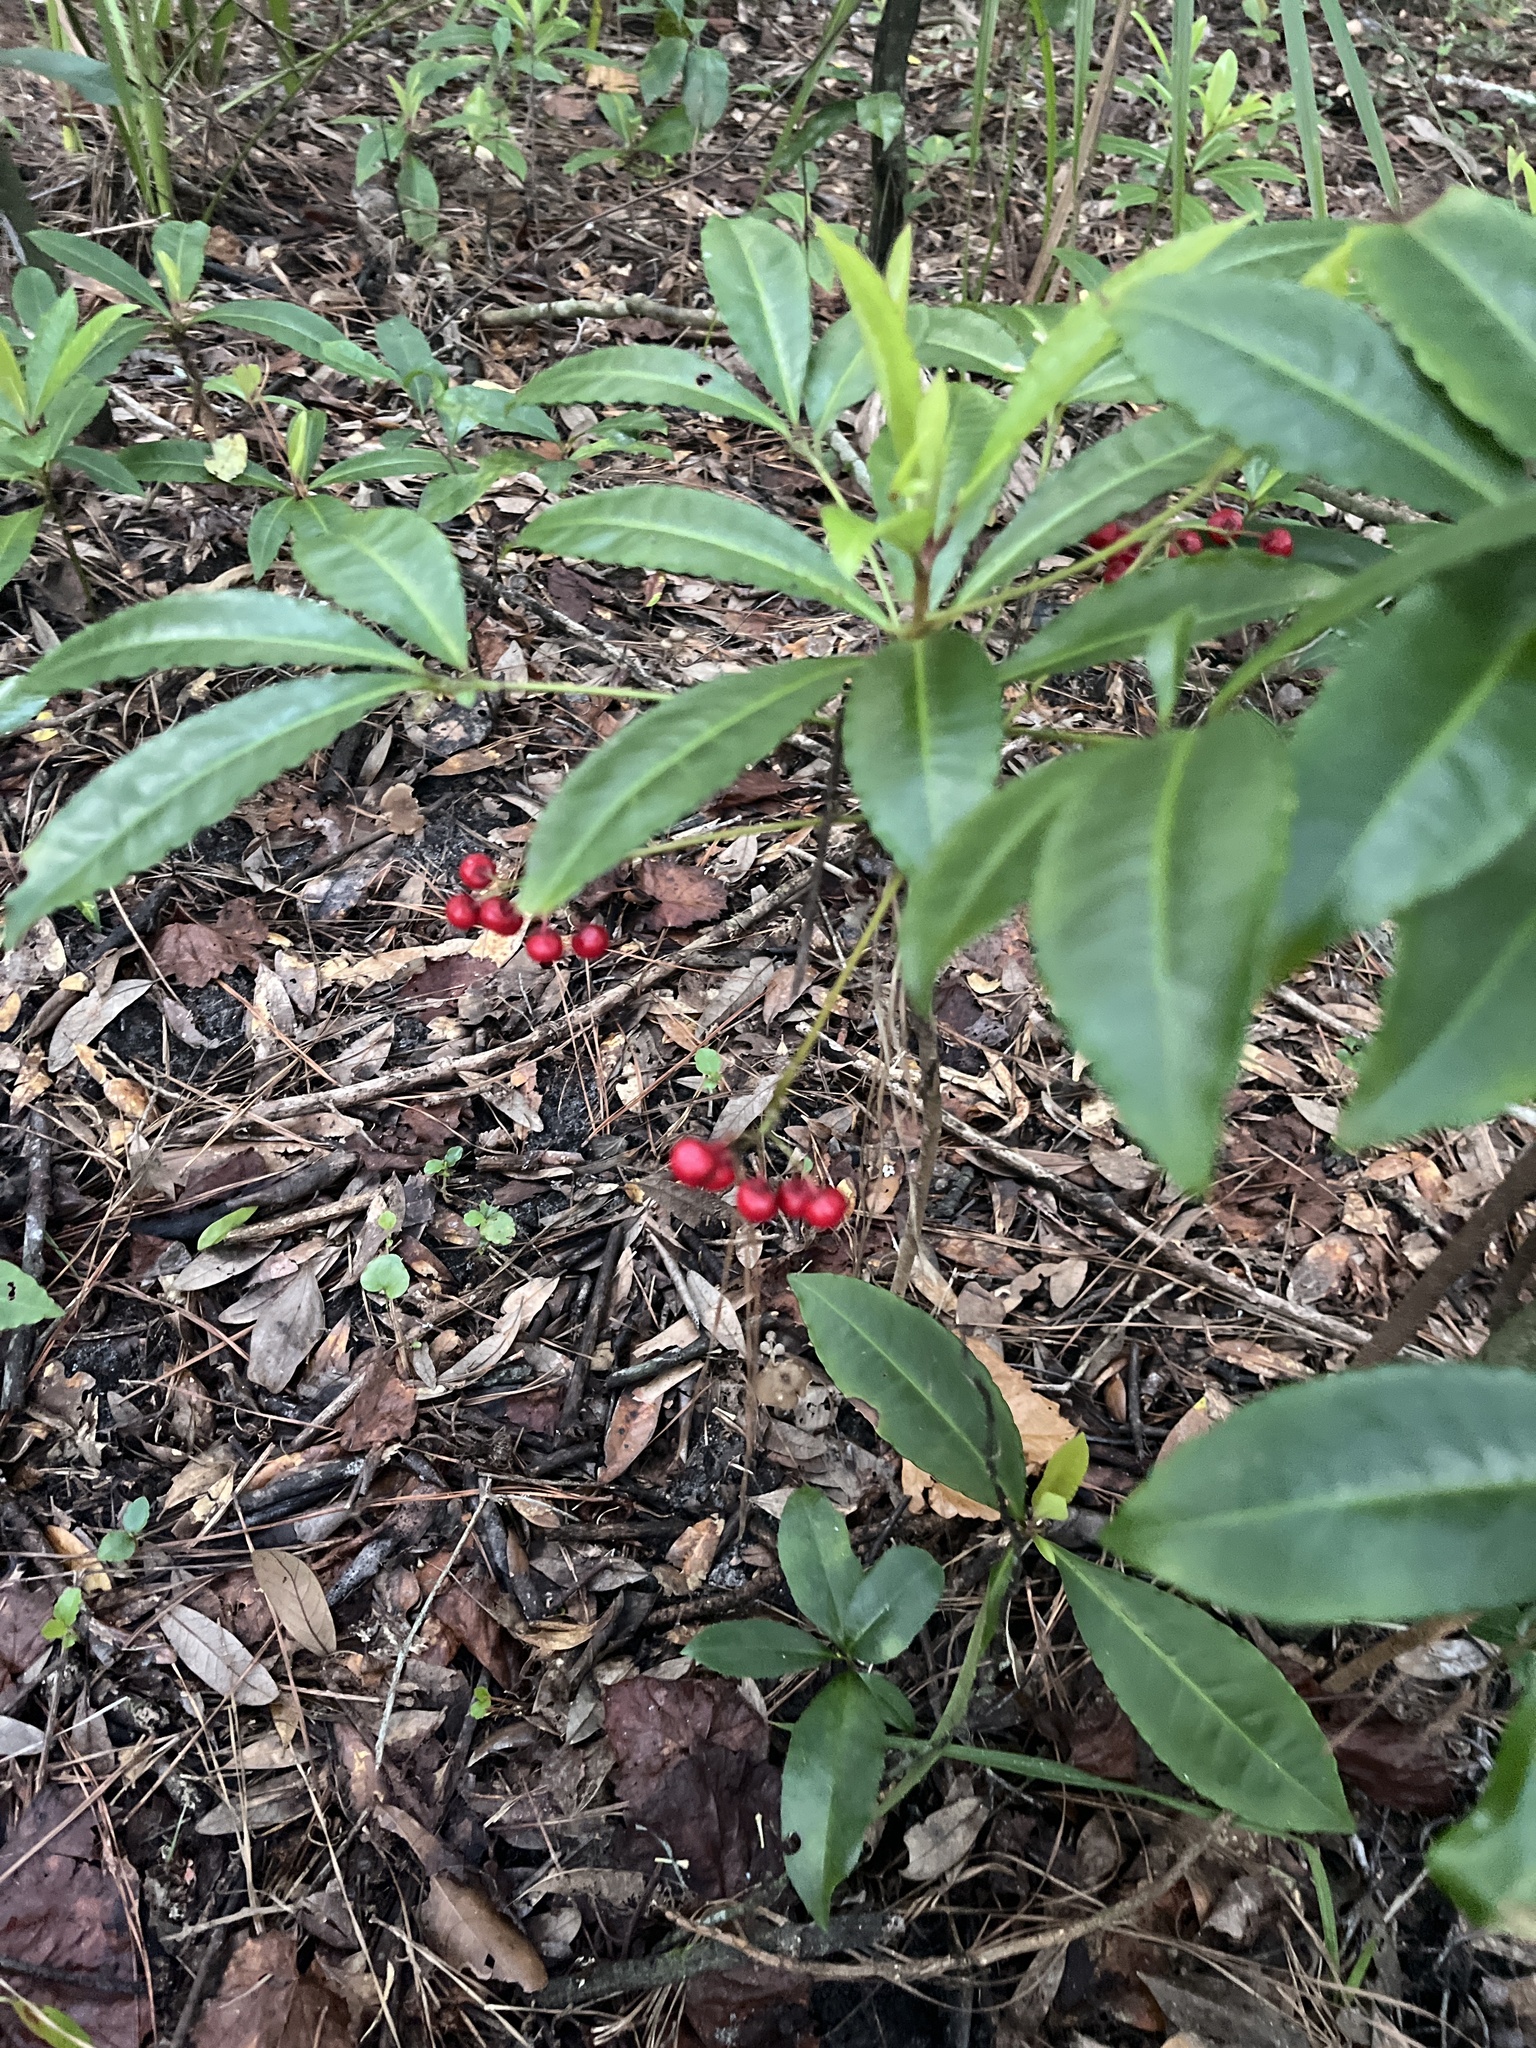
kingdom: Plantae
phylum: Tracheophyta
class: Magnoliopsida
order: Ericales
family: Primulaceae
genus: Ardisia
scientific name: Ardisia crenata
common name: Hen's eyes
